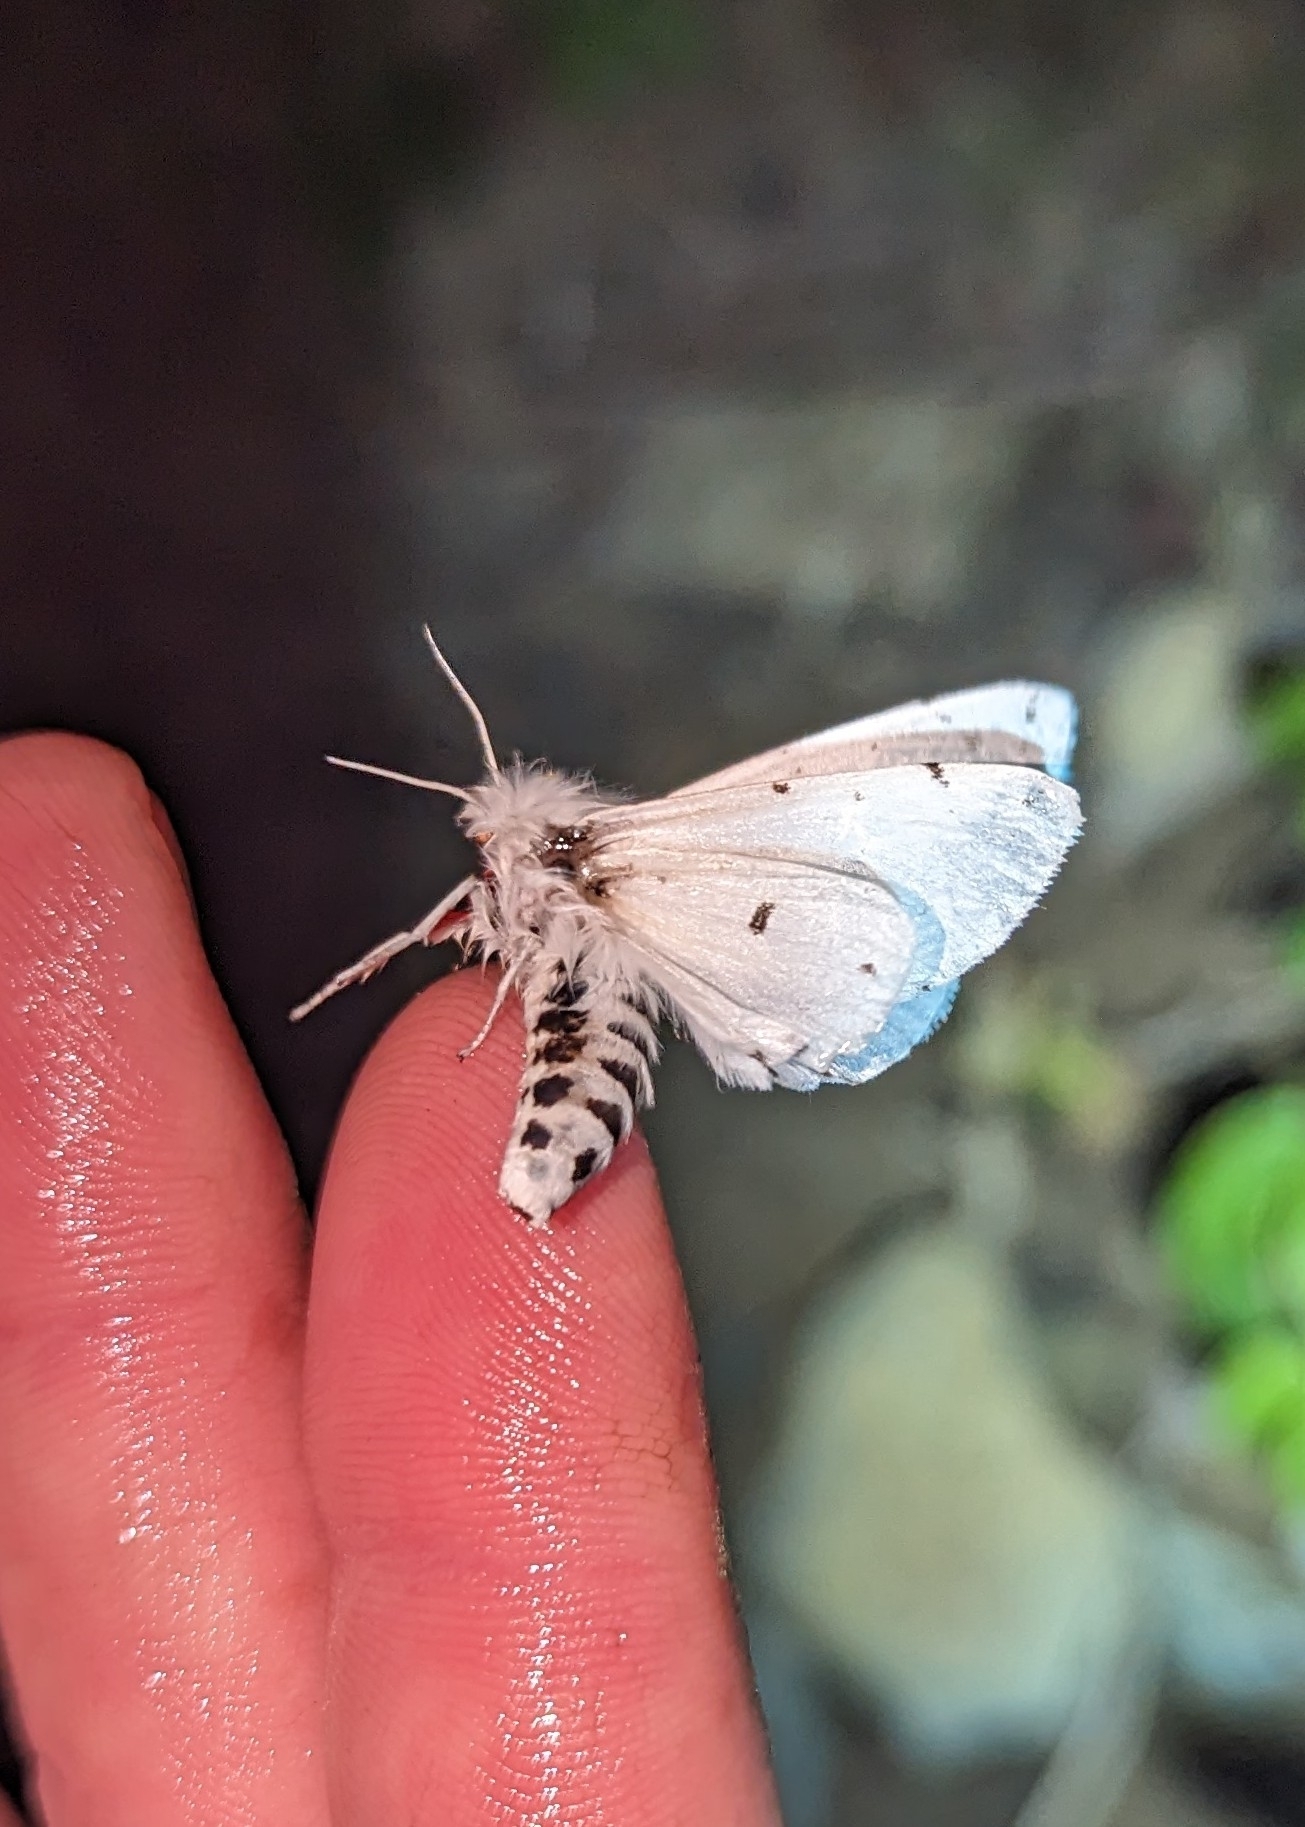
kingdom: Animalia
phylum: Arthropoda
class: Insecta
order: Lepidoptera
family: Erebidae
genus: Spilosoma
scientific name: Spilosoma vestalis
